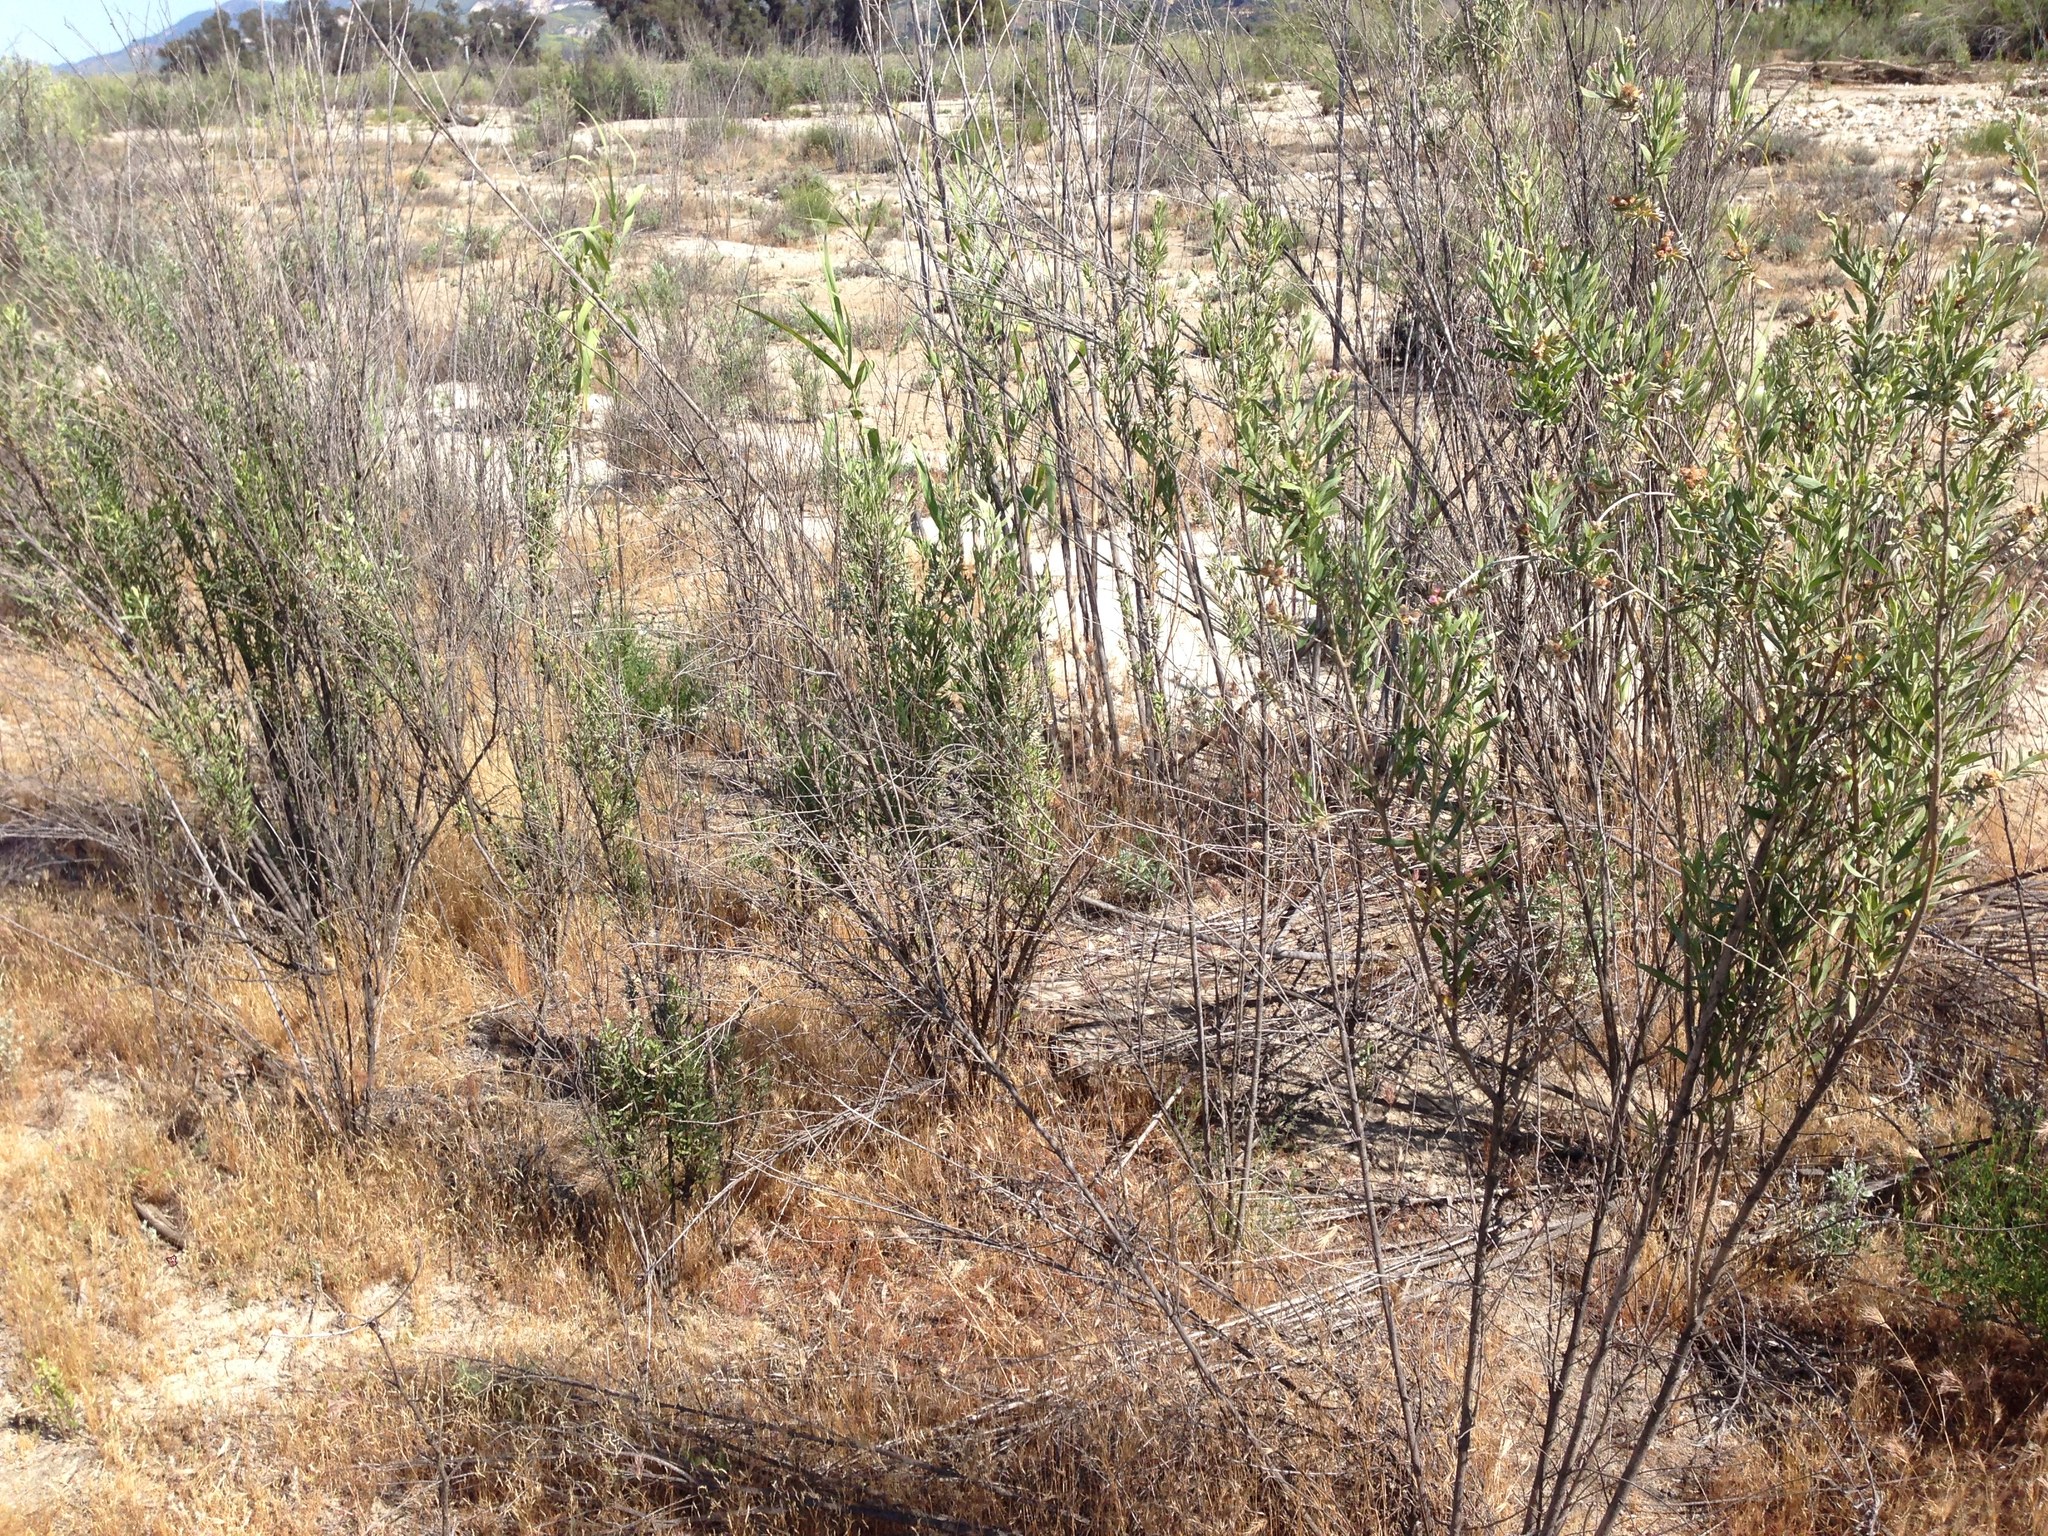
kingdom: Plantae
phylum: Tracheophyta
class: Magnoliopsida
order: Asterales
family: Asteraceae
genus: Pluchea
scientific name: Pluchea sericea
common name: Arrow-weed
